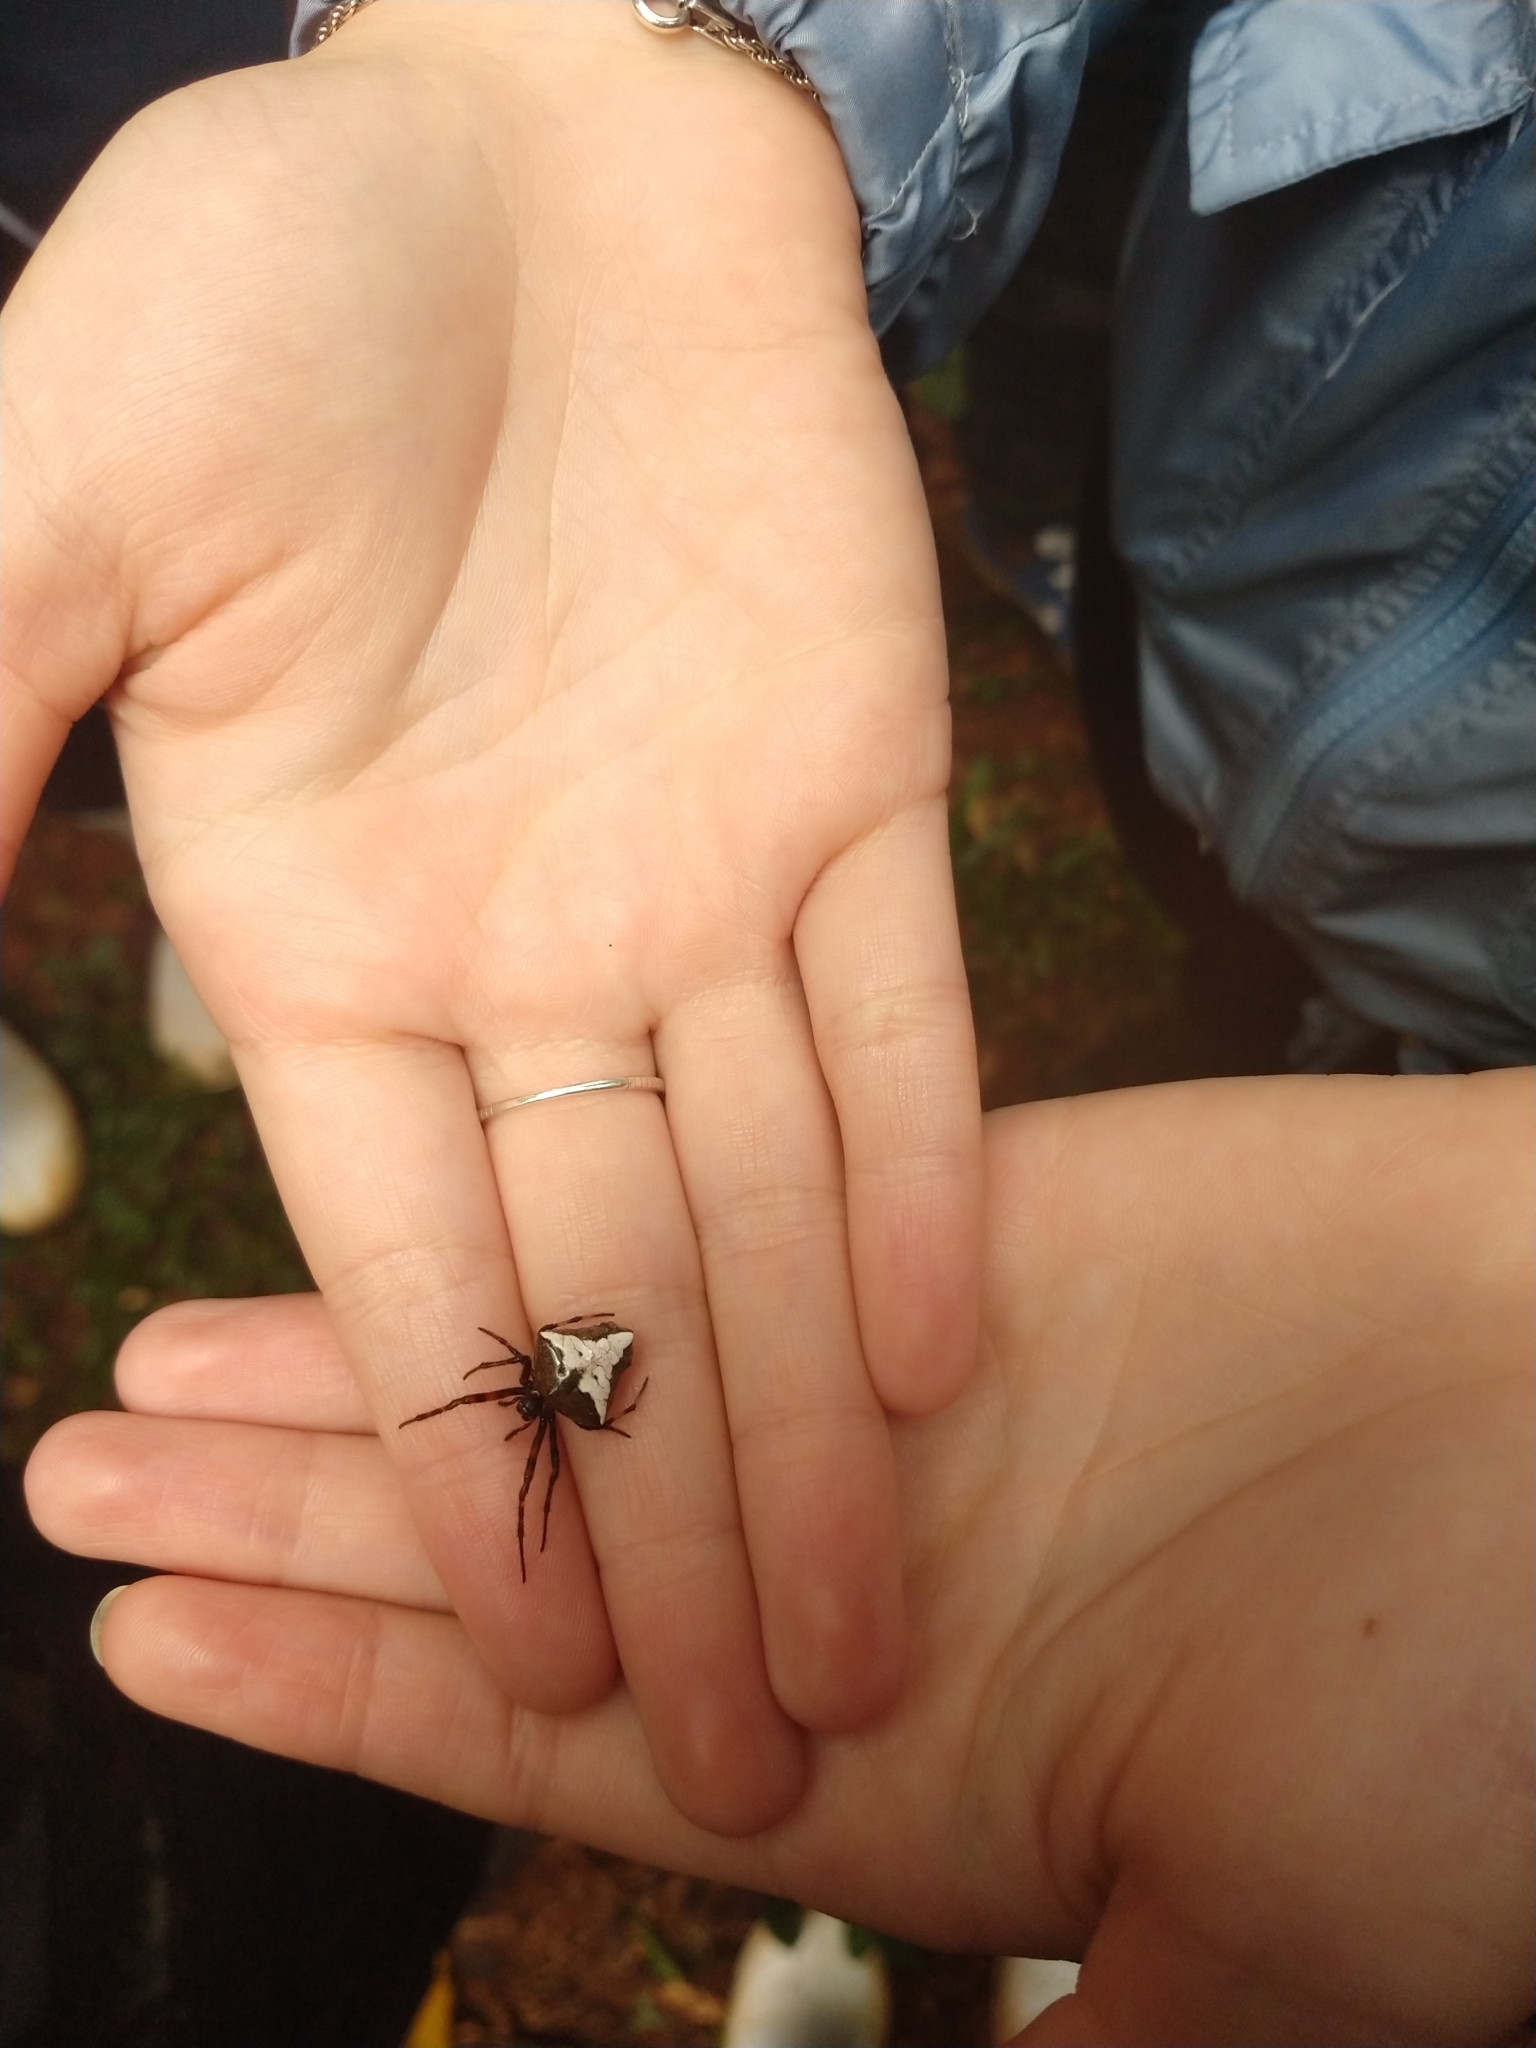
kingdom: Animalia
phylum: Arthropoda
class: Arachnida
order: Araneae
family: Araneidae
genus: Verrucosa
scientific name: Verrucosa scapofracta
